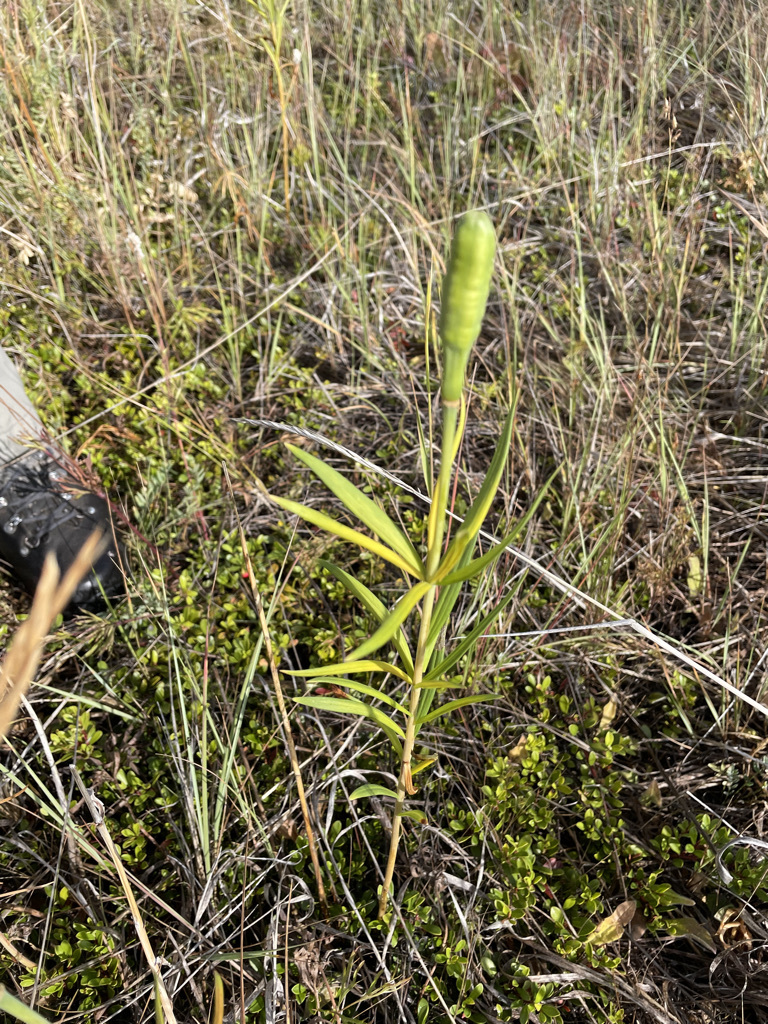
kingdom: Plantae
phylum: Tracheophyta
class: Liliopsida
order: Liliales
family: Liliaceae
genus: Lilium
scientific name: Lilium philadelphicum
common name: Red lily
